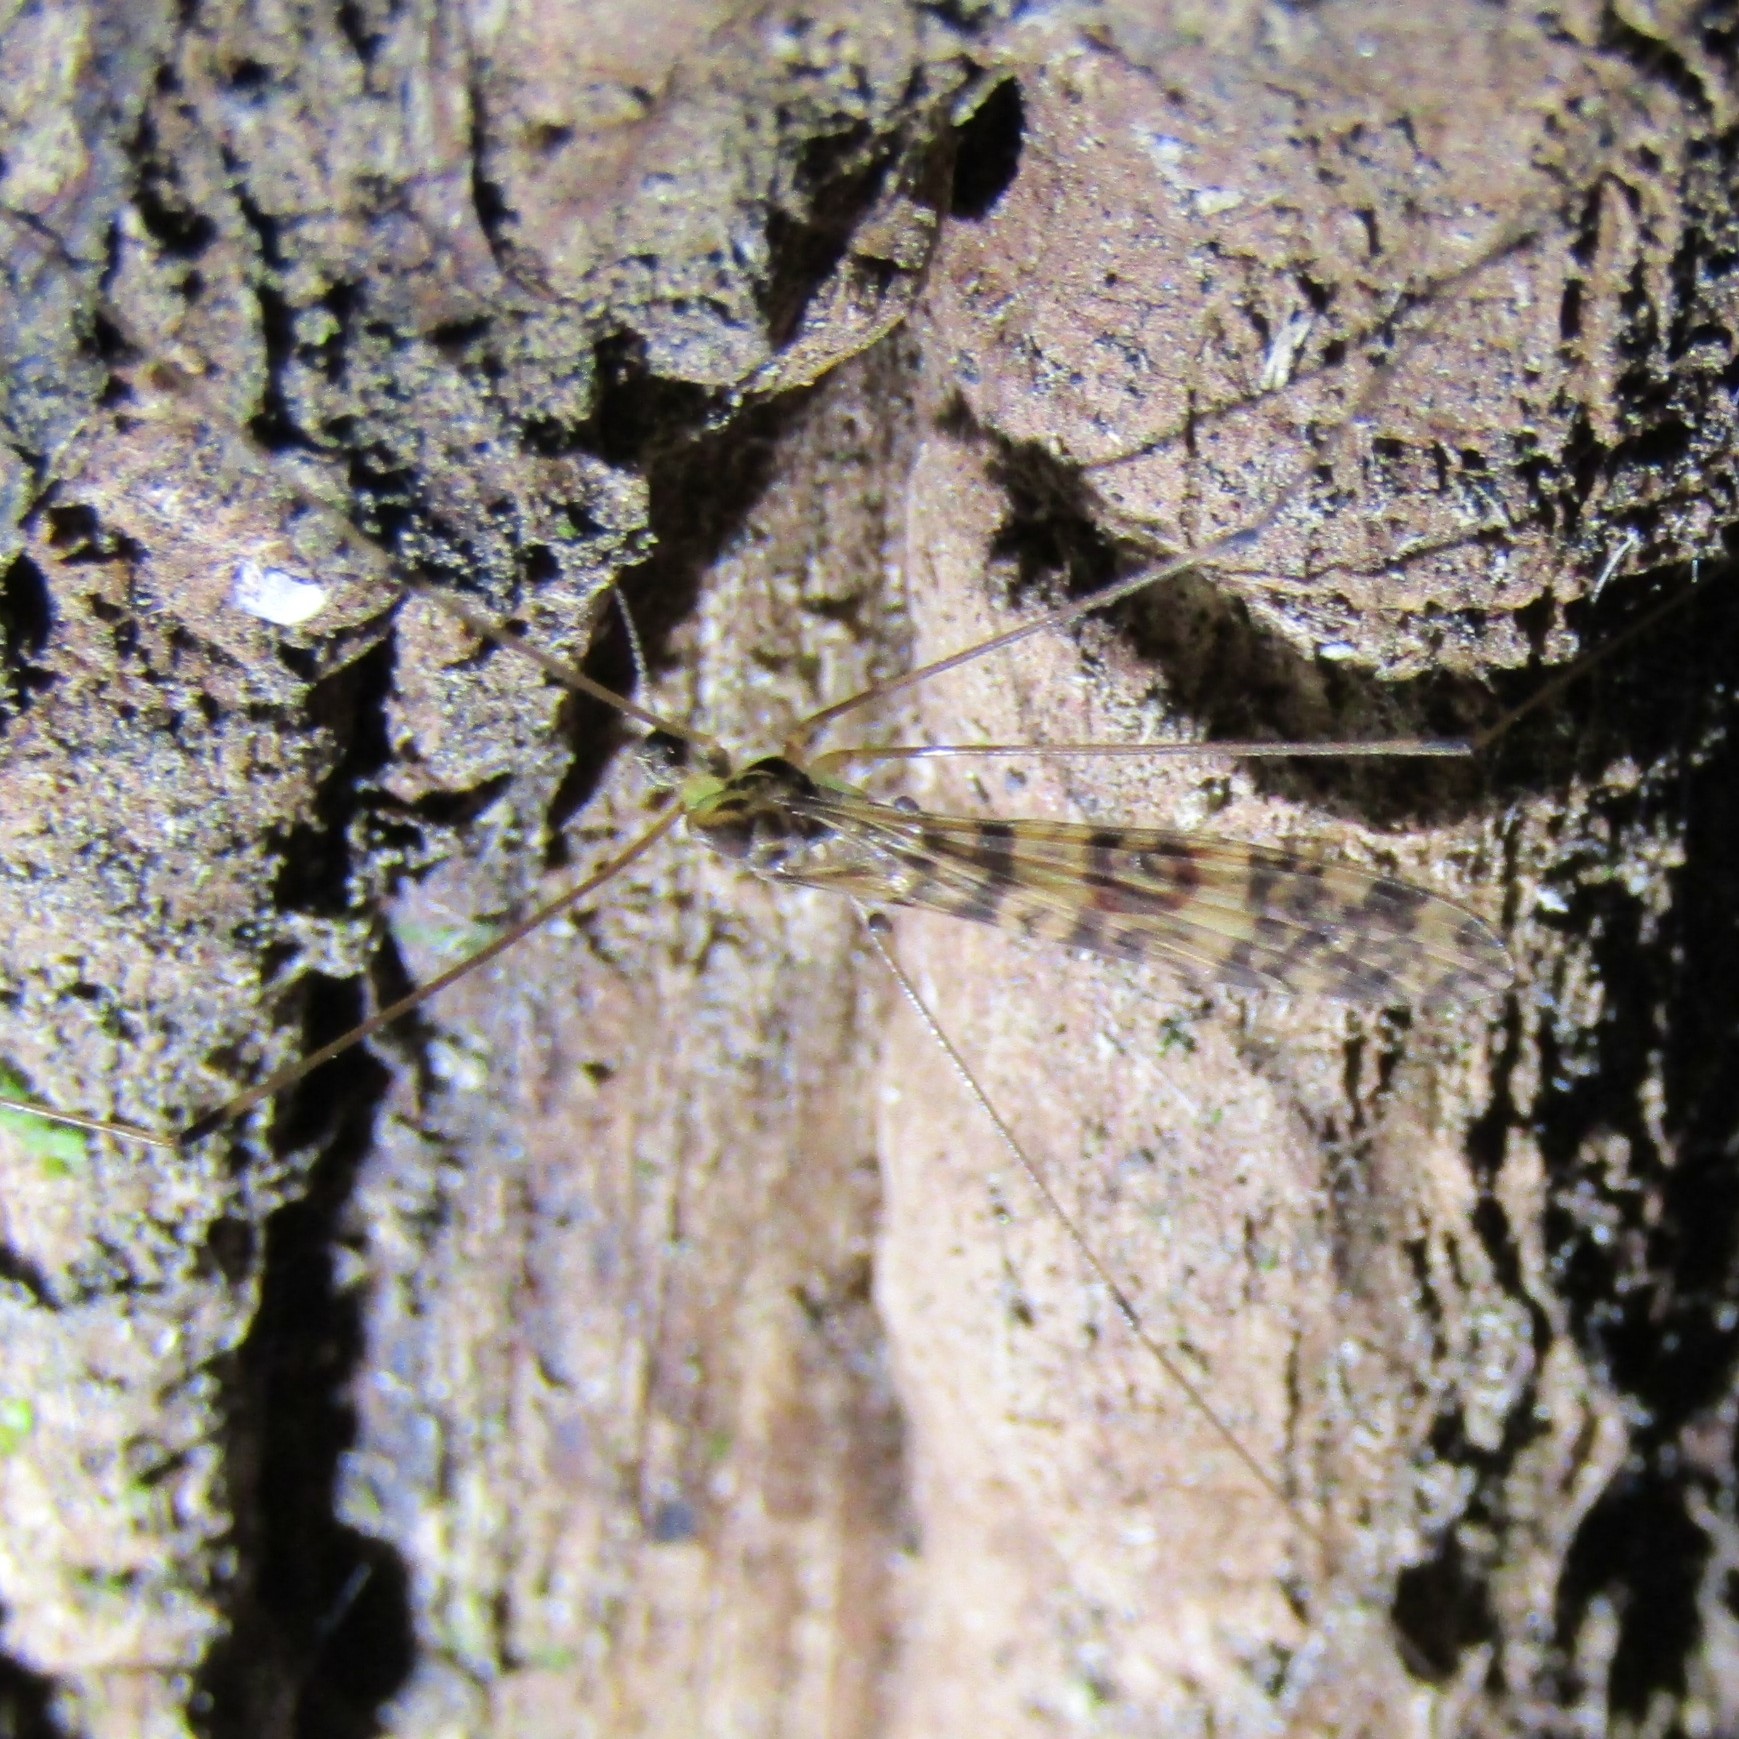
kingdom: Animalia
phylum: Arthropoda
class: Insecta
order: Diptera
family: Limoniidae
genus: Discobola
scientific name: Discobola gibberina
